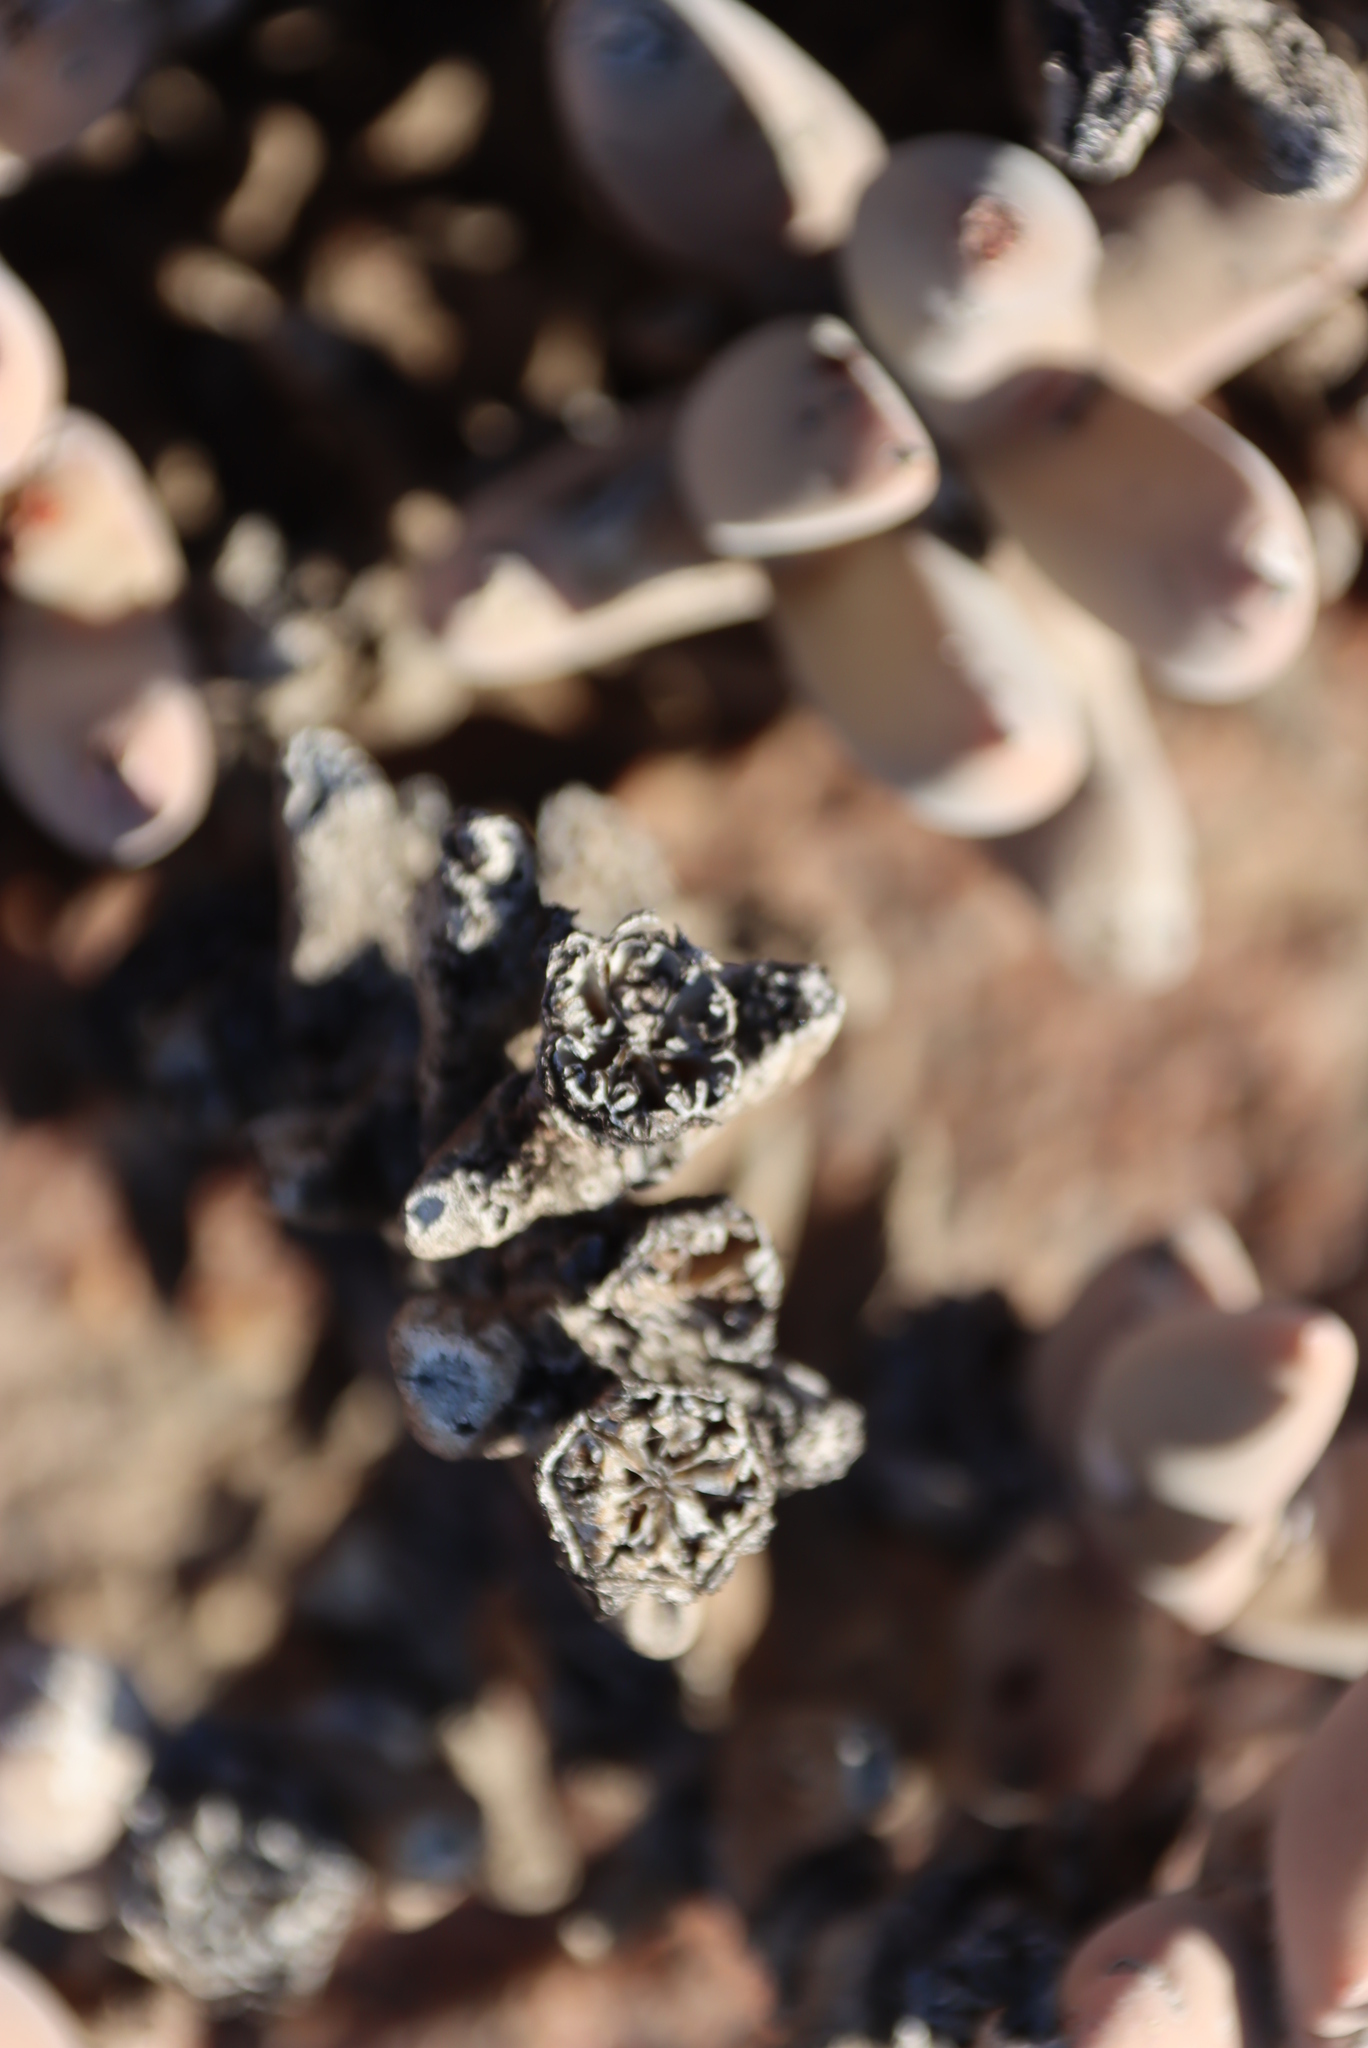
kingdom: Plantae
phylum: Tracheophyta
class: Magnoliopsida
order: Caryophyllales
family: Aizoaceae
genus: Astridia
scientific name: Astridia velutina
